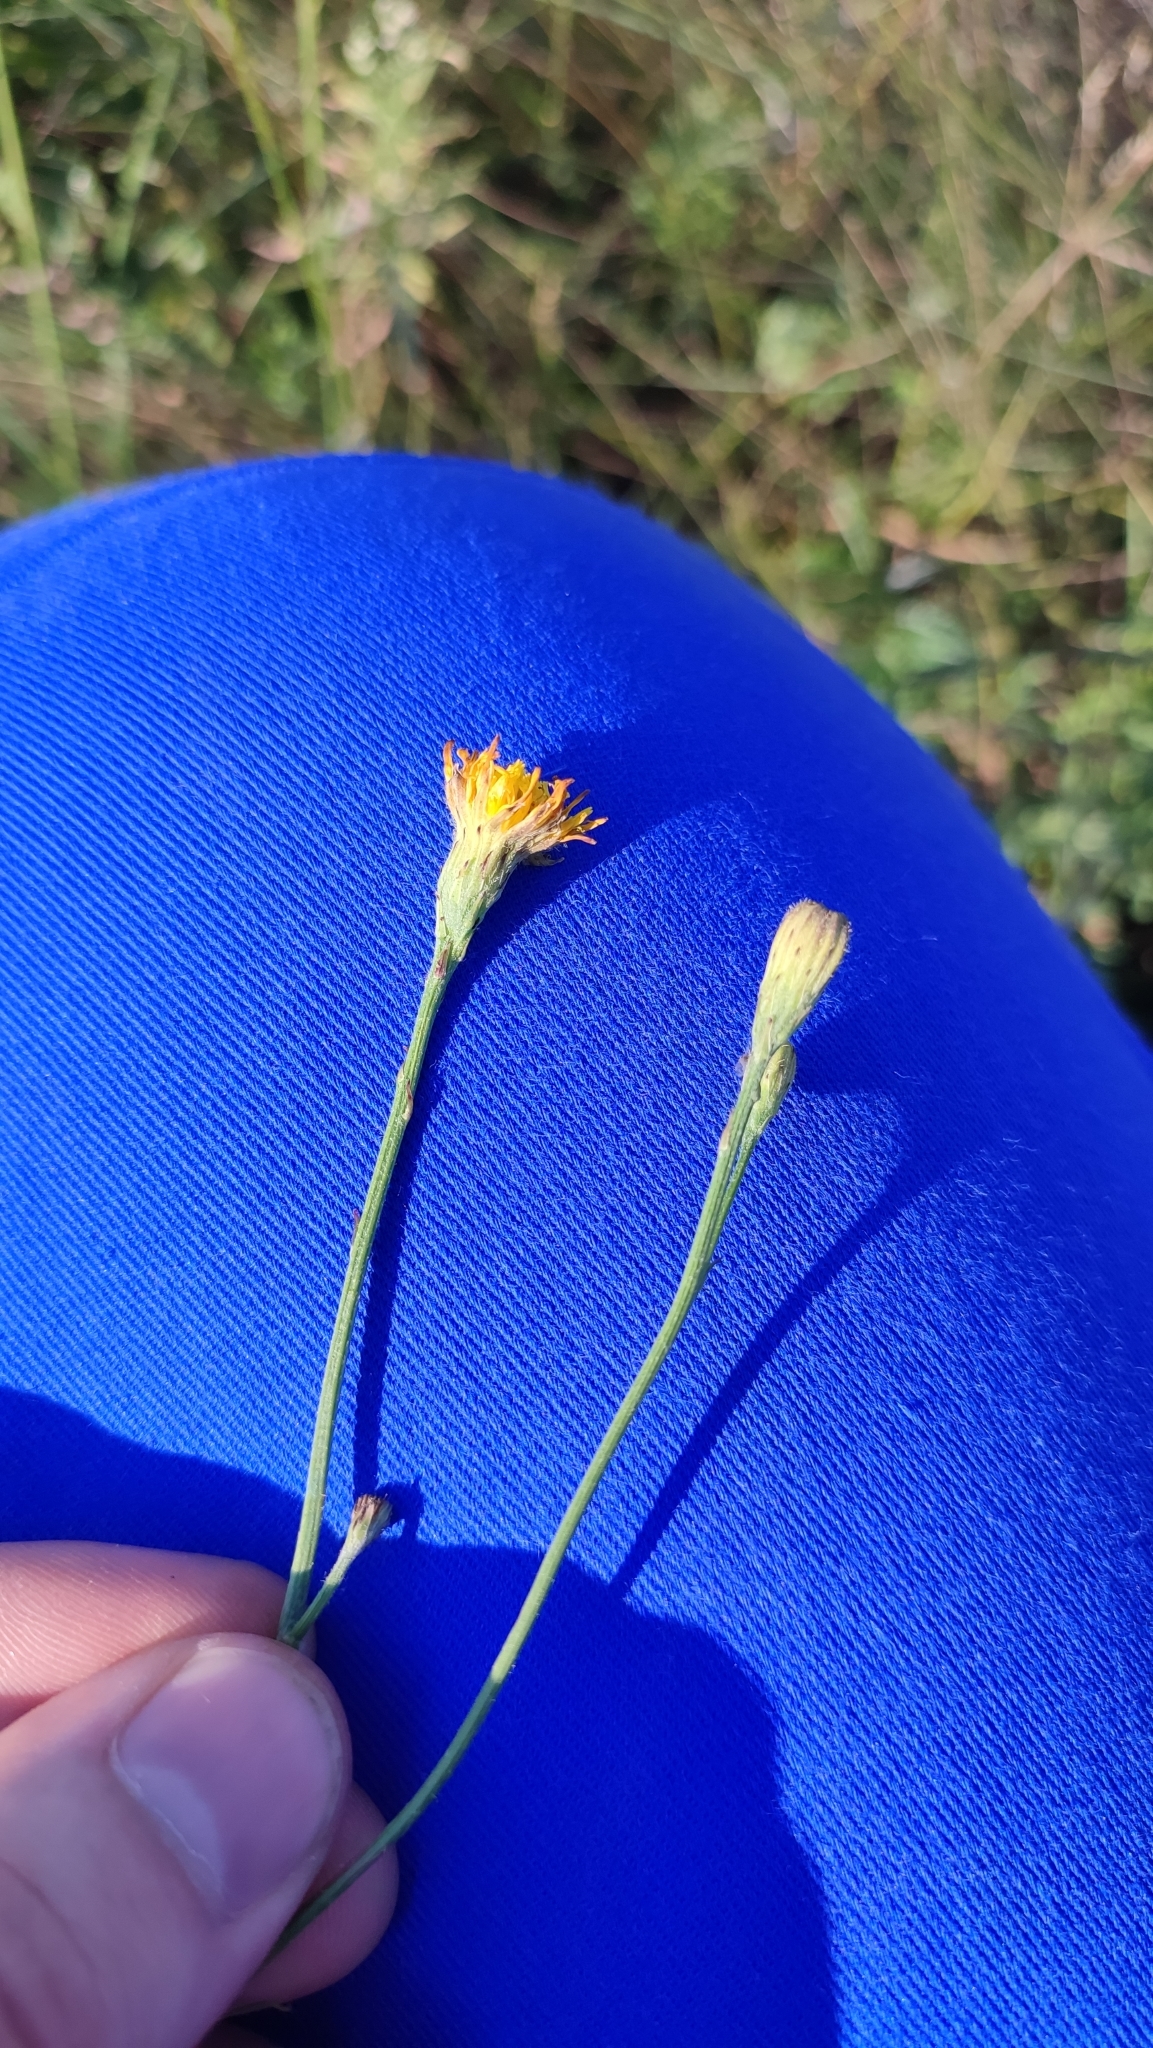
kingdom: Plantae
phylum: Tracheophyta
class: Magnoliopsida
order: Asterales
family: Asteraceae
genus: Scorzoneroides
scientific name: Scorzoneroides autumnalis
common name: Autumn hawkbit
